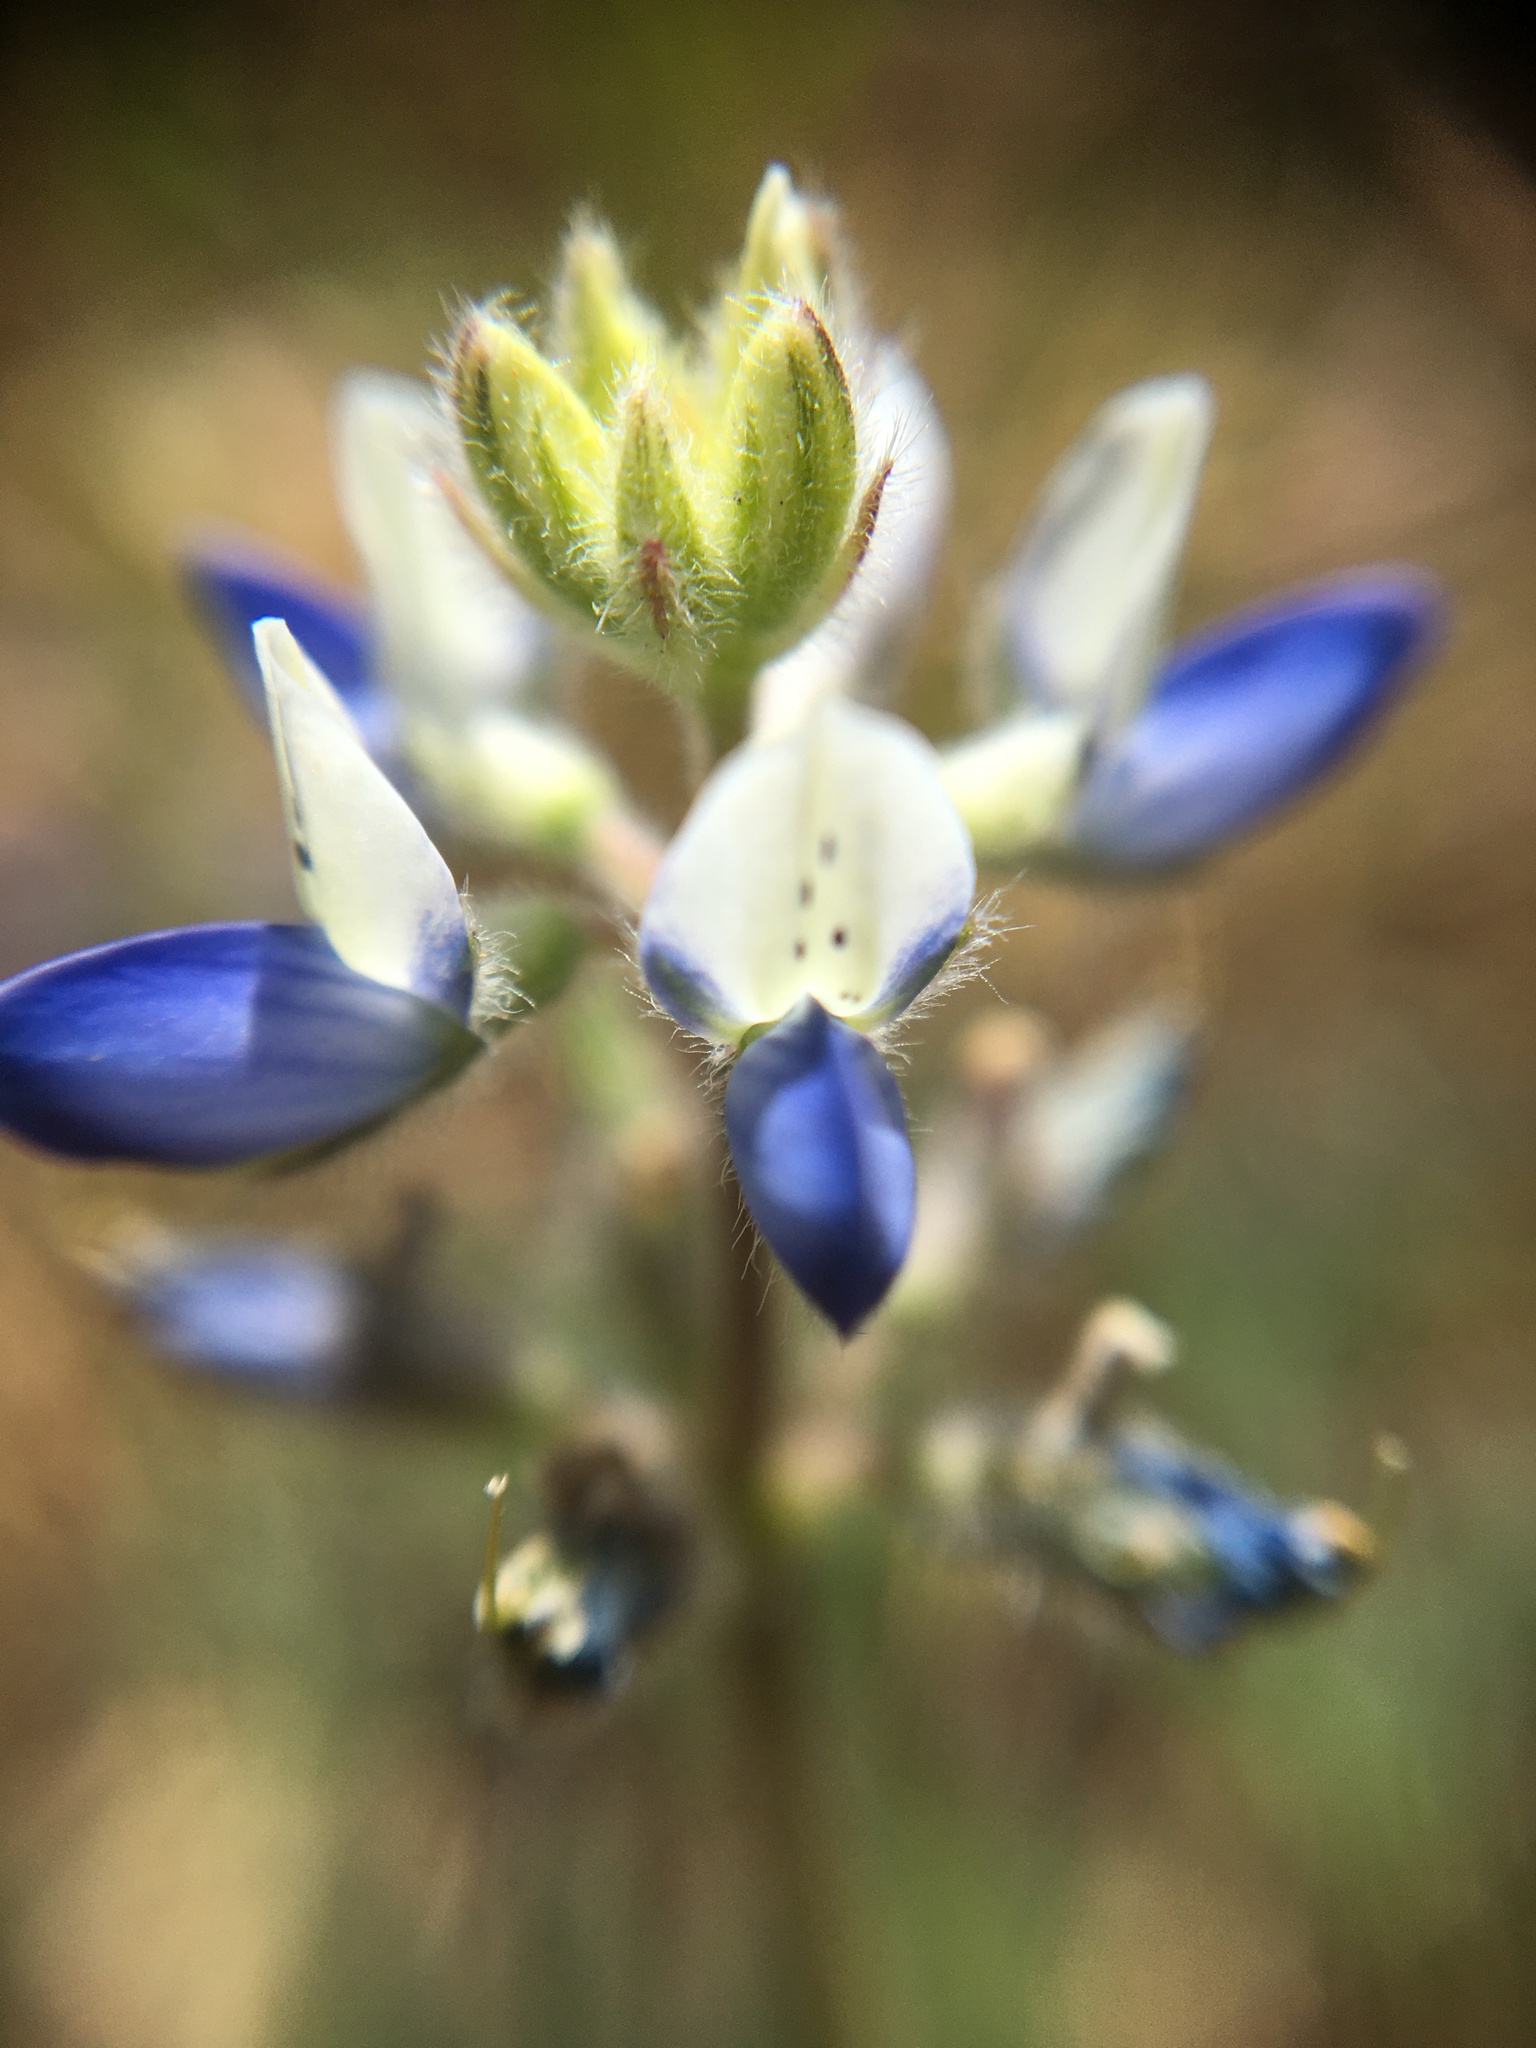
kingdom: Plantae
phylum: Tracheophyta
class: Magnoliopsida
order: Fabales
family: Fabaceae
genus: Lupinus
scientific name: Lupinus bicolor
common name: Miniature lupine
